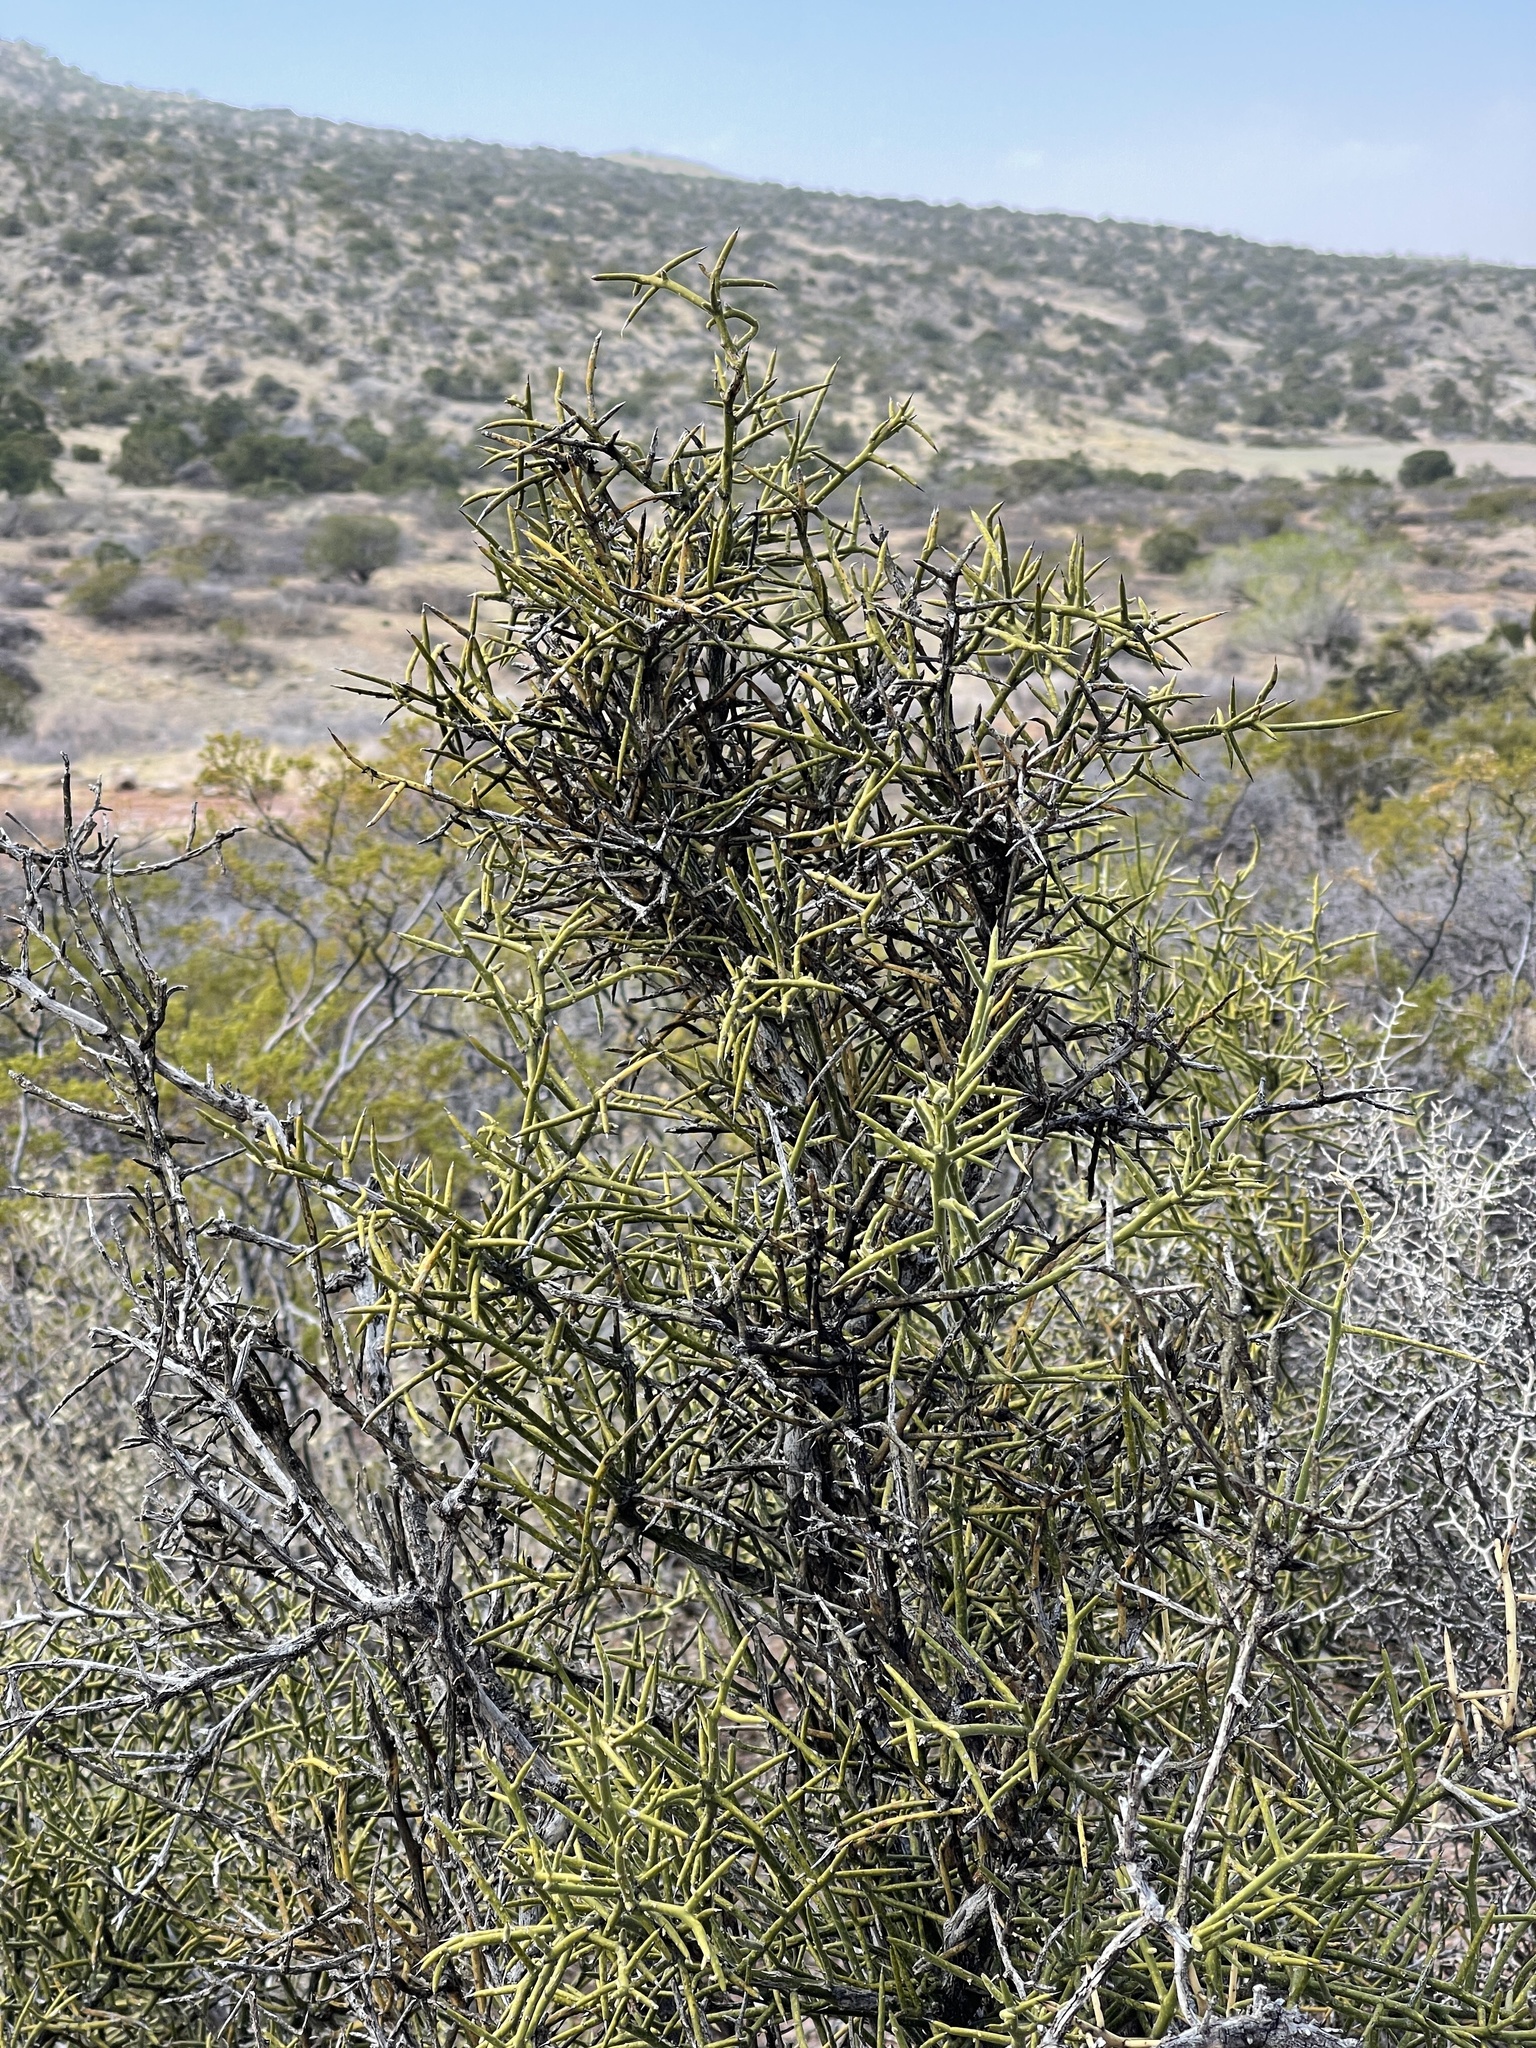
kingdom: Plantae
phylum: Tracheophyta
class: Magnoliopsida
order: Brassicales
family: Koeberliniaceae
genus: Koeberlinia
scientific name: Koeberlinia spinosa
